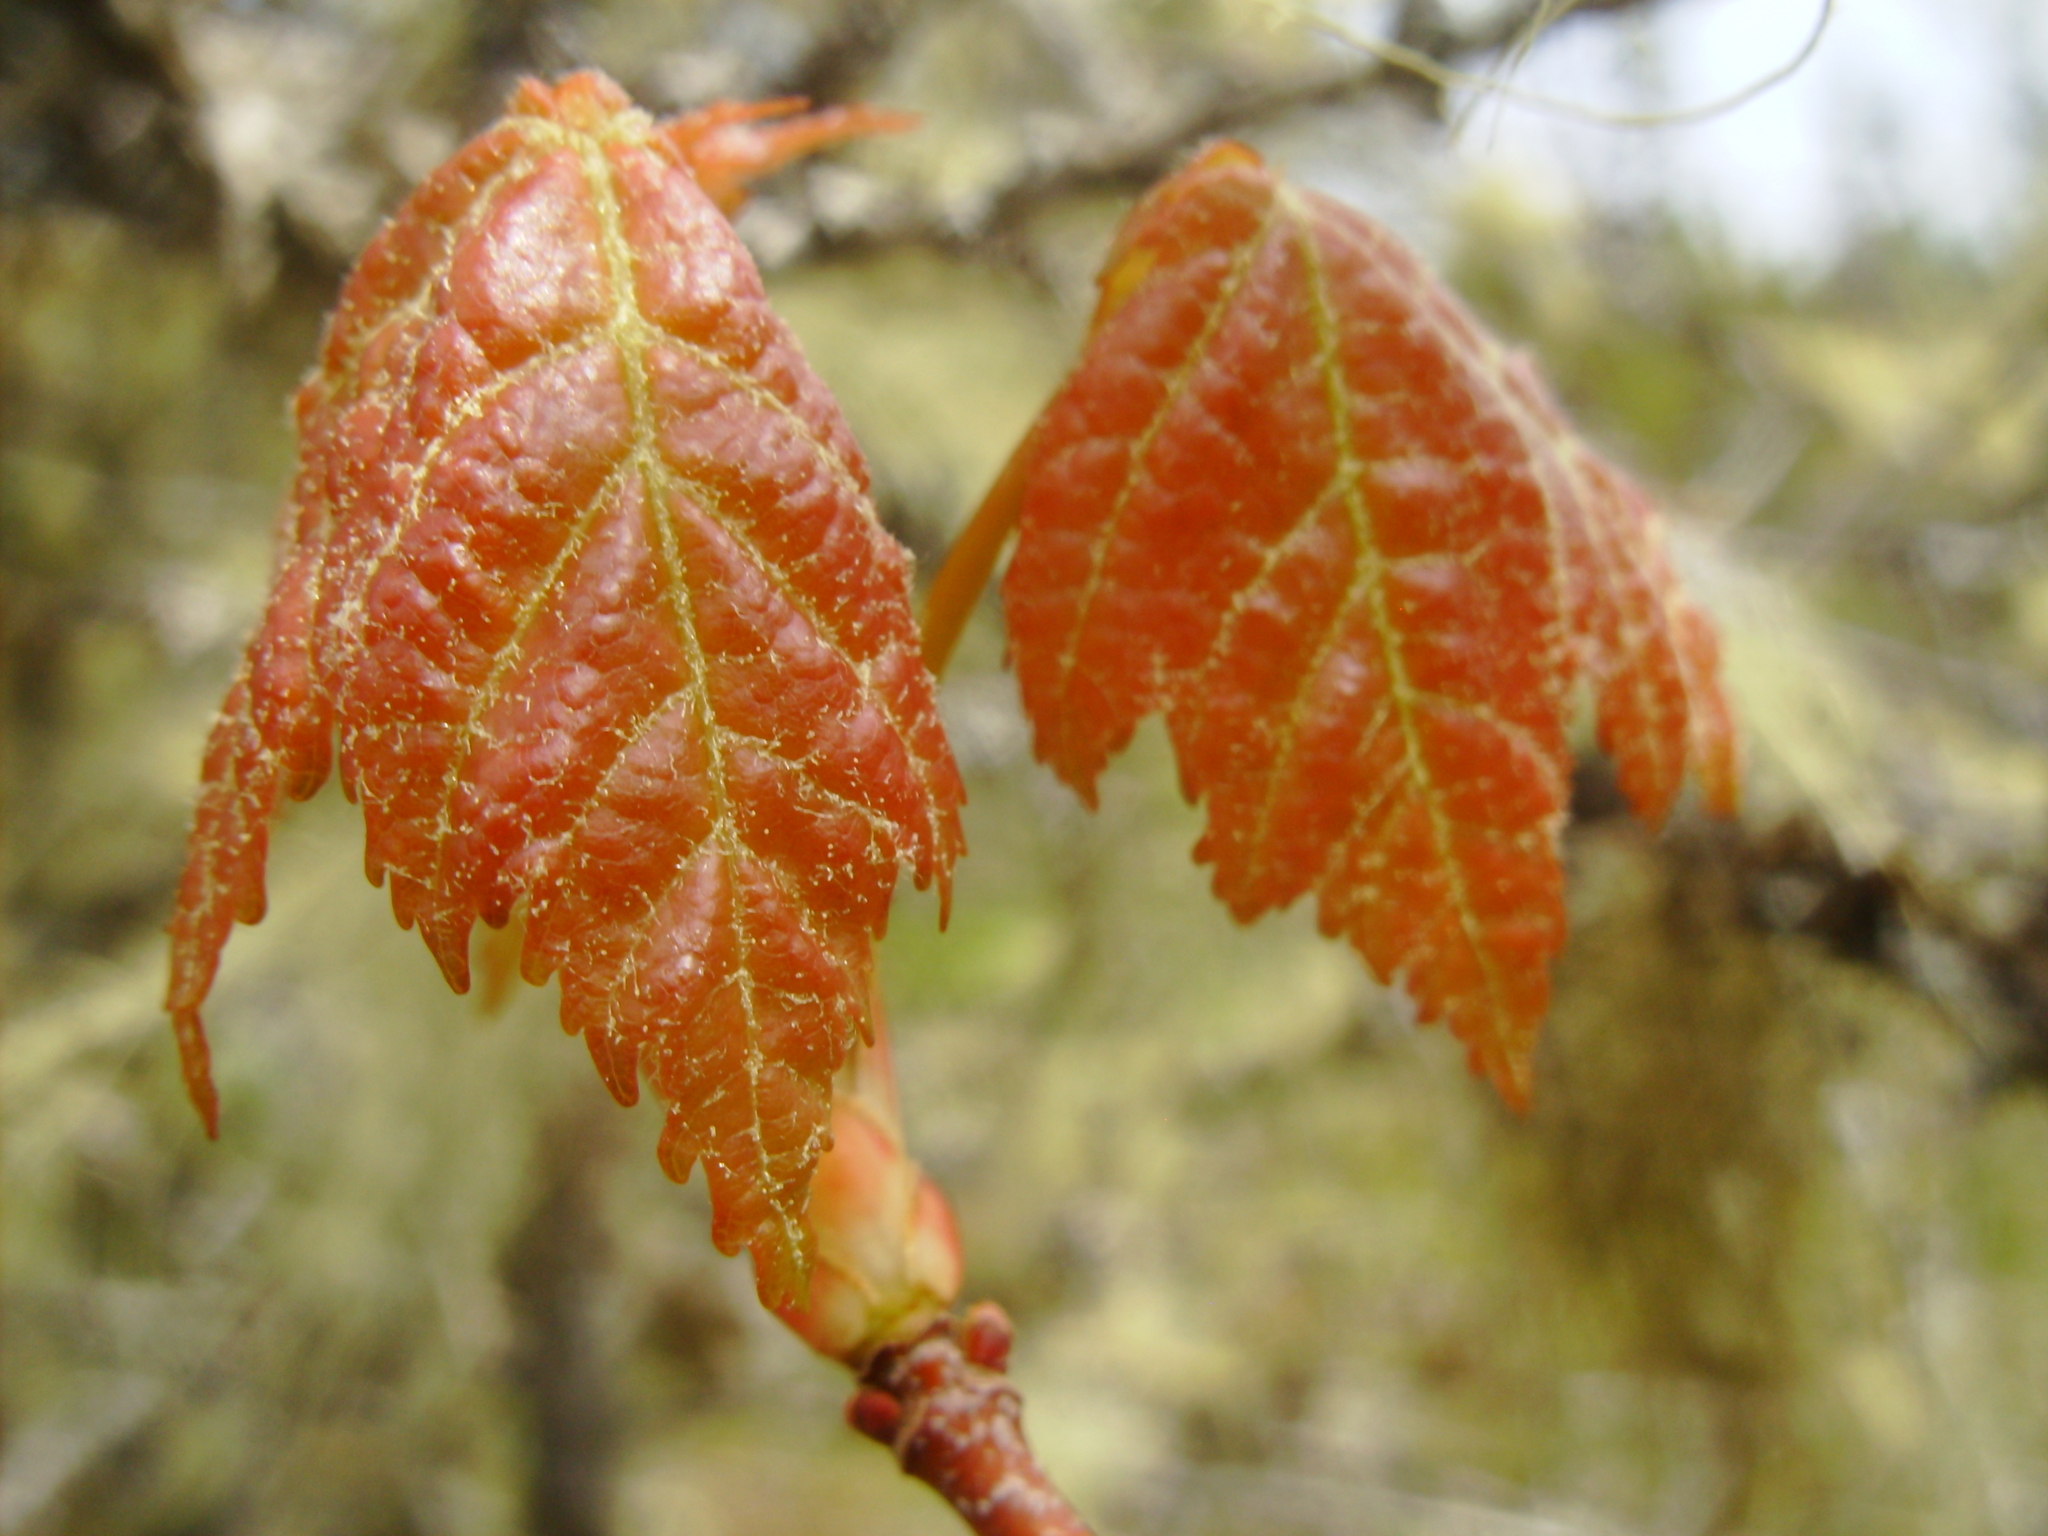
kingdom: Plantae
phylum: Tracheophyta
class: Magnoliopsida
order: Sapindales
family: Sapindaceae
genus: Acer
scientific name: Acer rubrum
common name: Red maple
